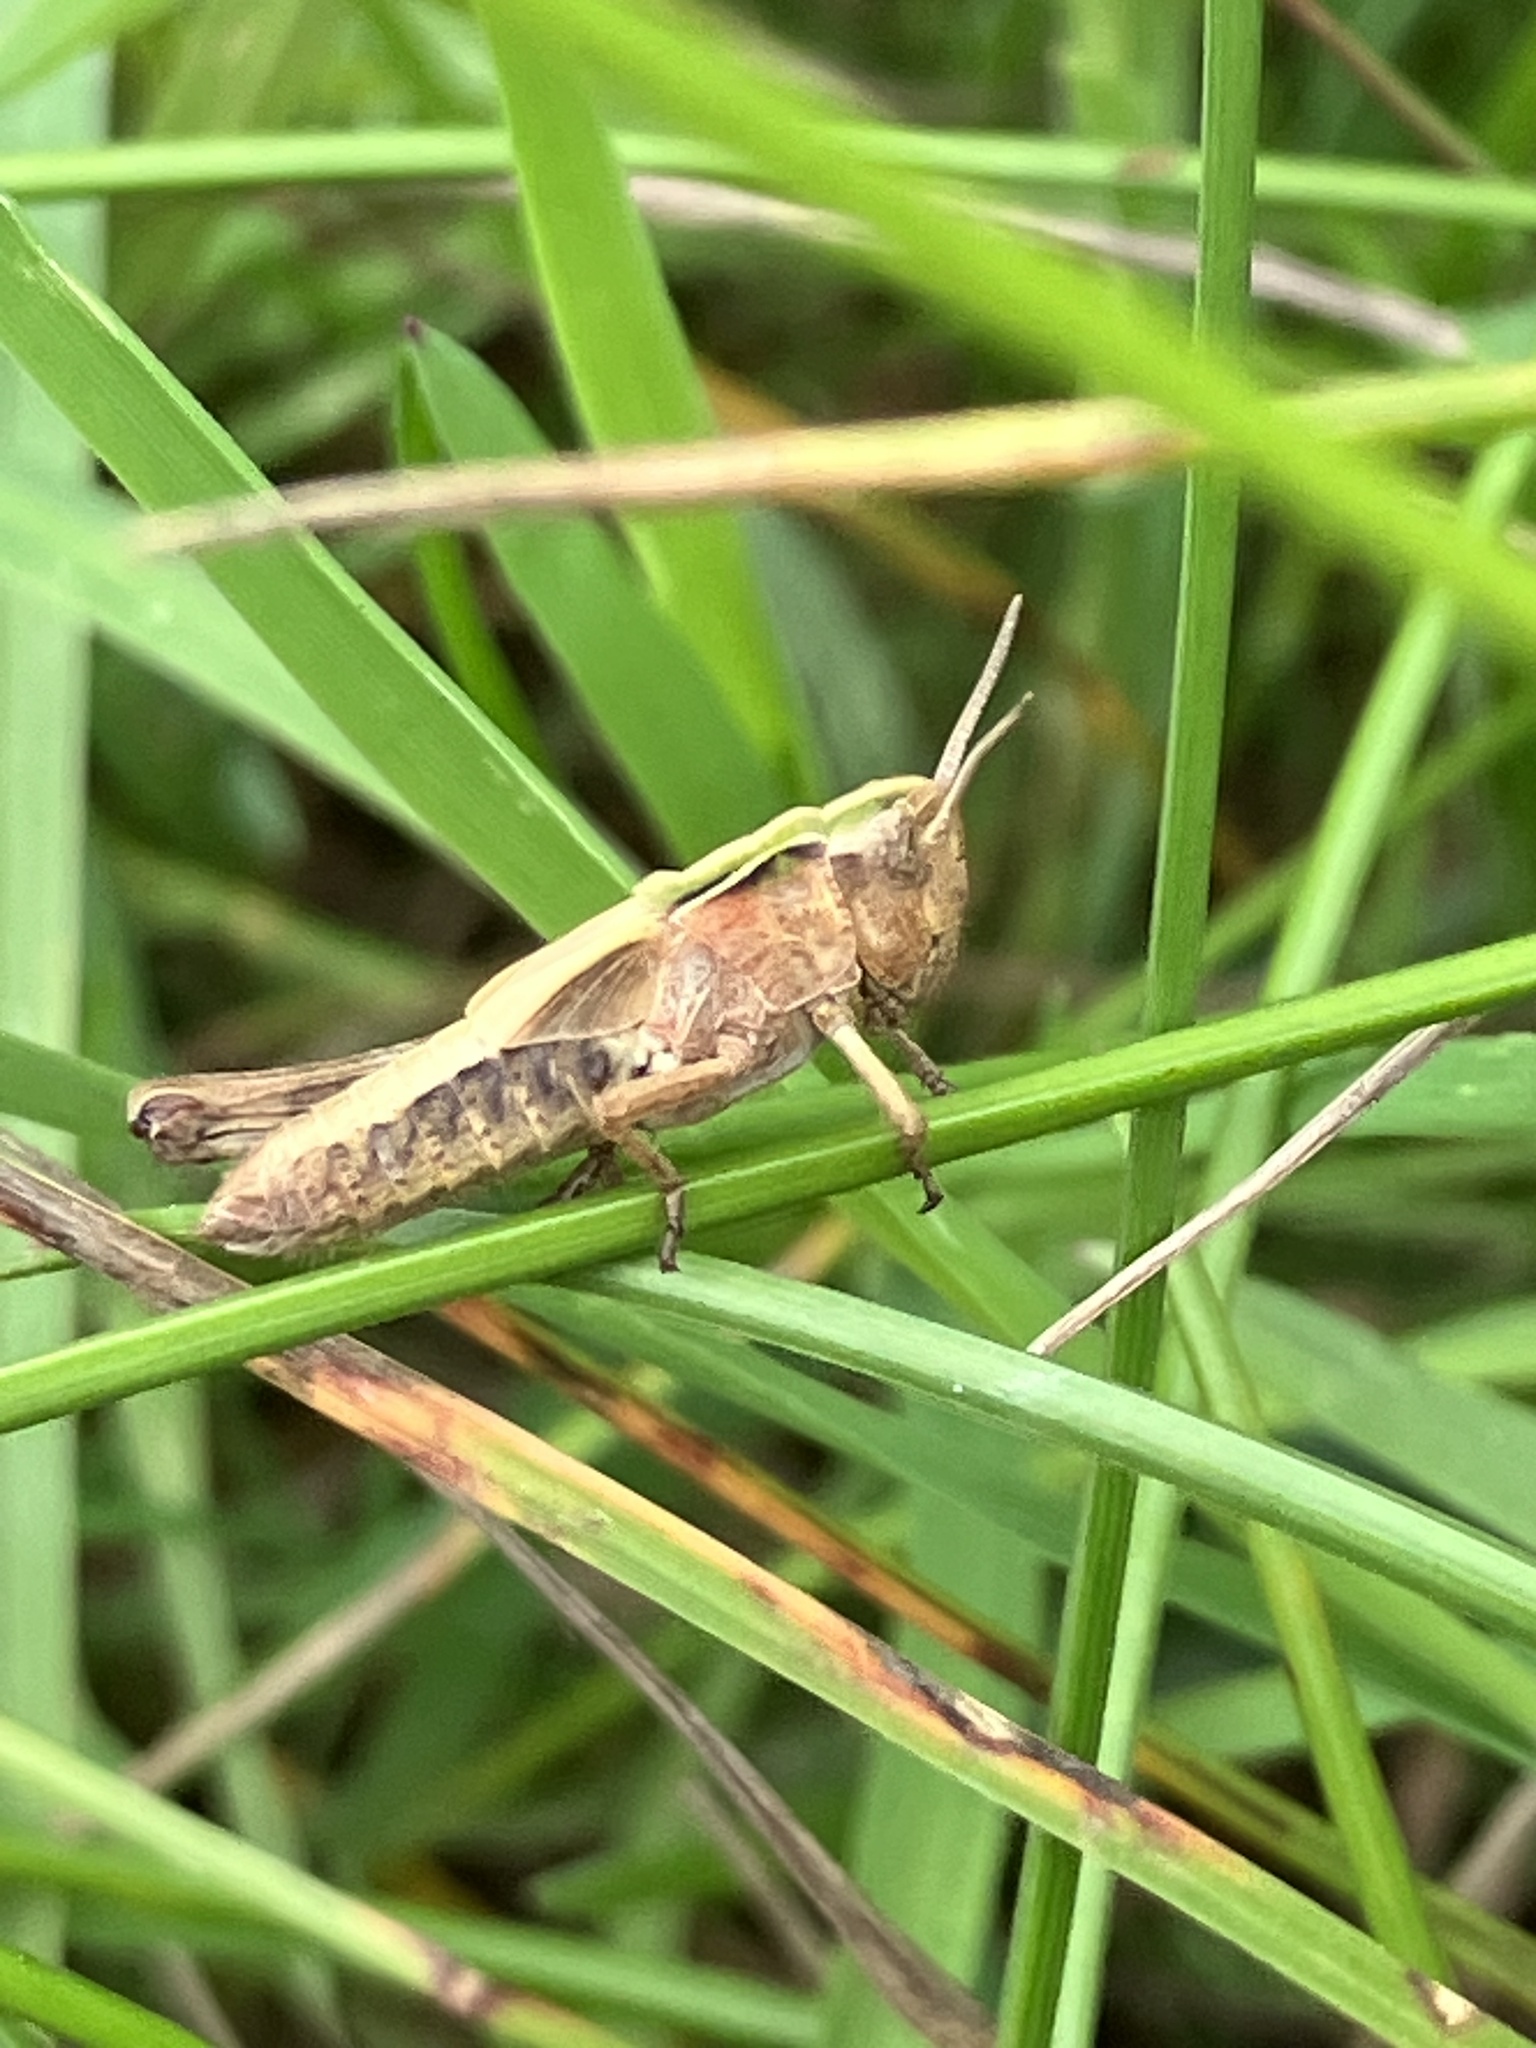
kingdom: Animalia
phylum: Arthropoda
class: Insecta
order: Orthoptera
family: Acrididae
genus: Omocestus
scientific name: Omocestus viridulus
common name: Common green grasshopper
